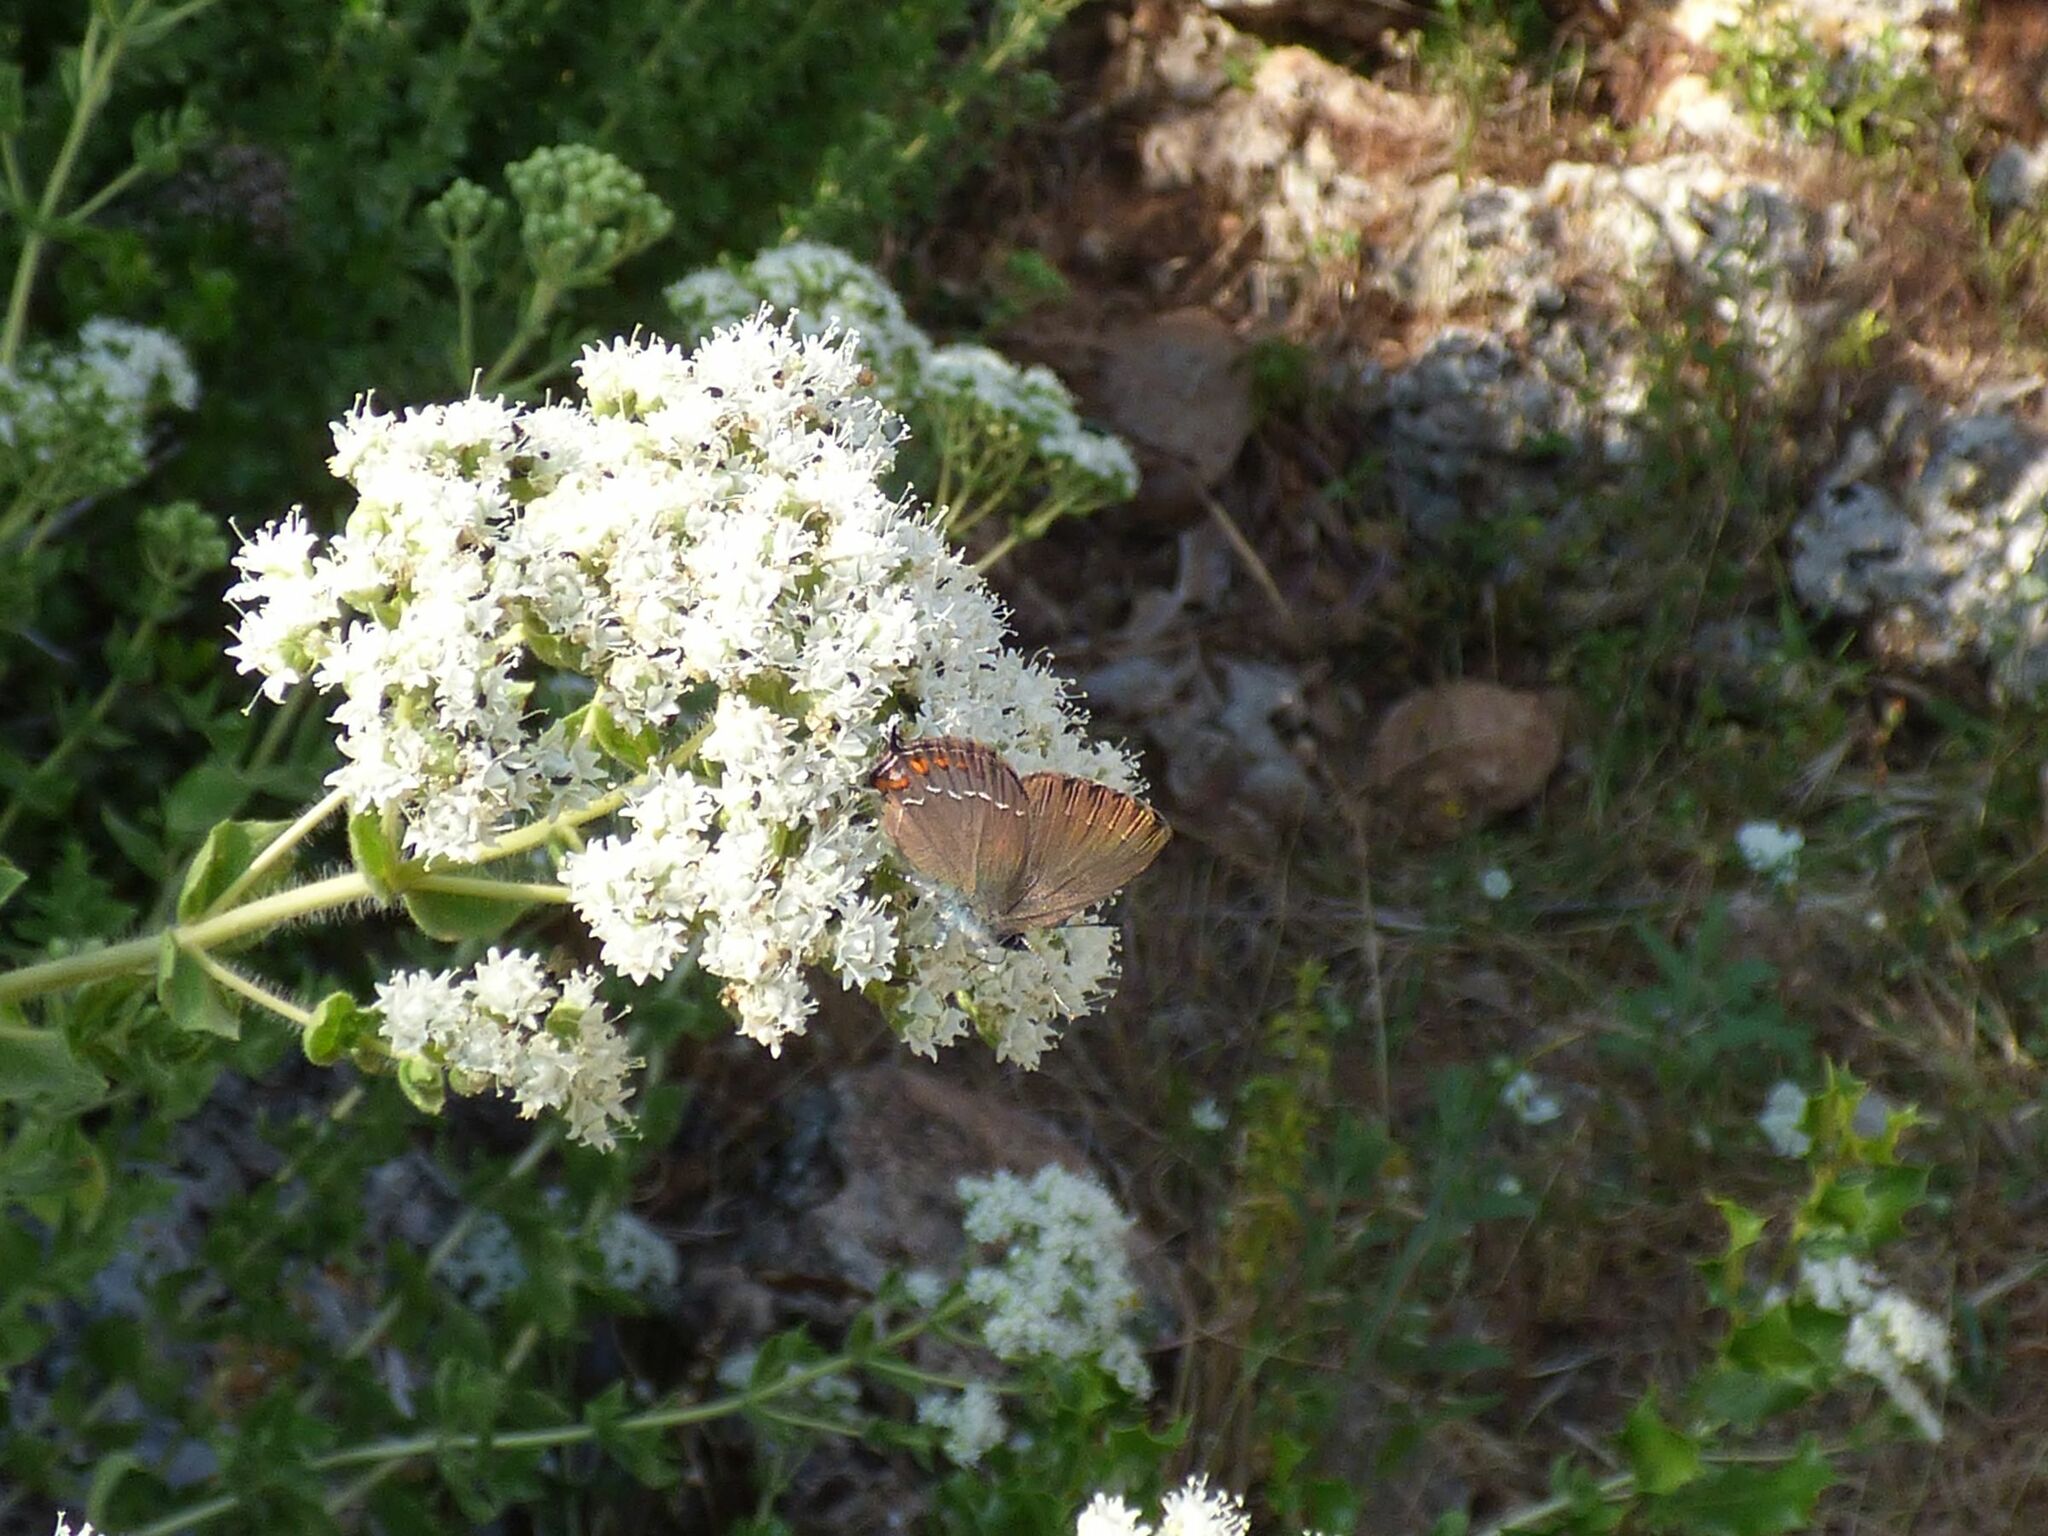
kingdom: Animalia
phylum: Arthropoda
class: Insecta
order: Lepidoptera
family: Lycaenidae
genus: Nordmannia
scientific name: Nordmannia ilicis
